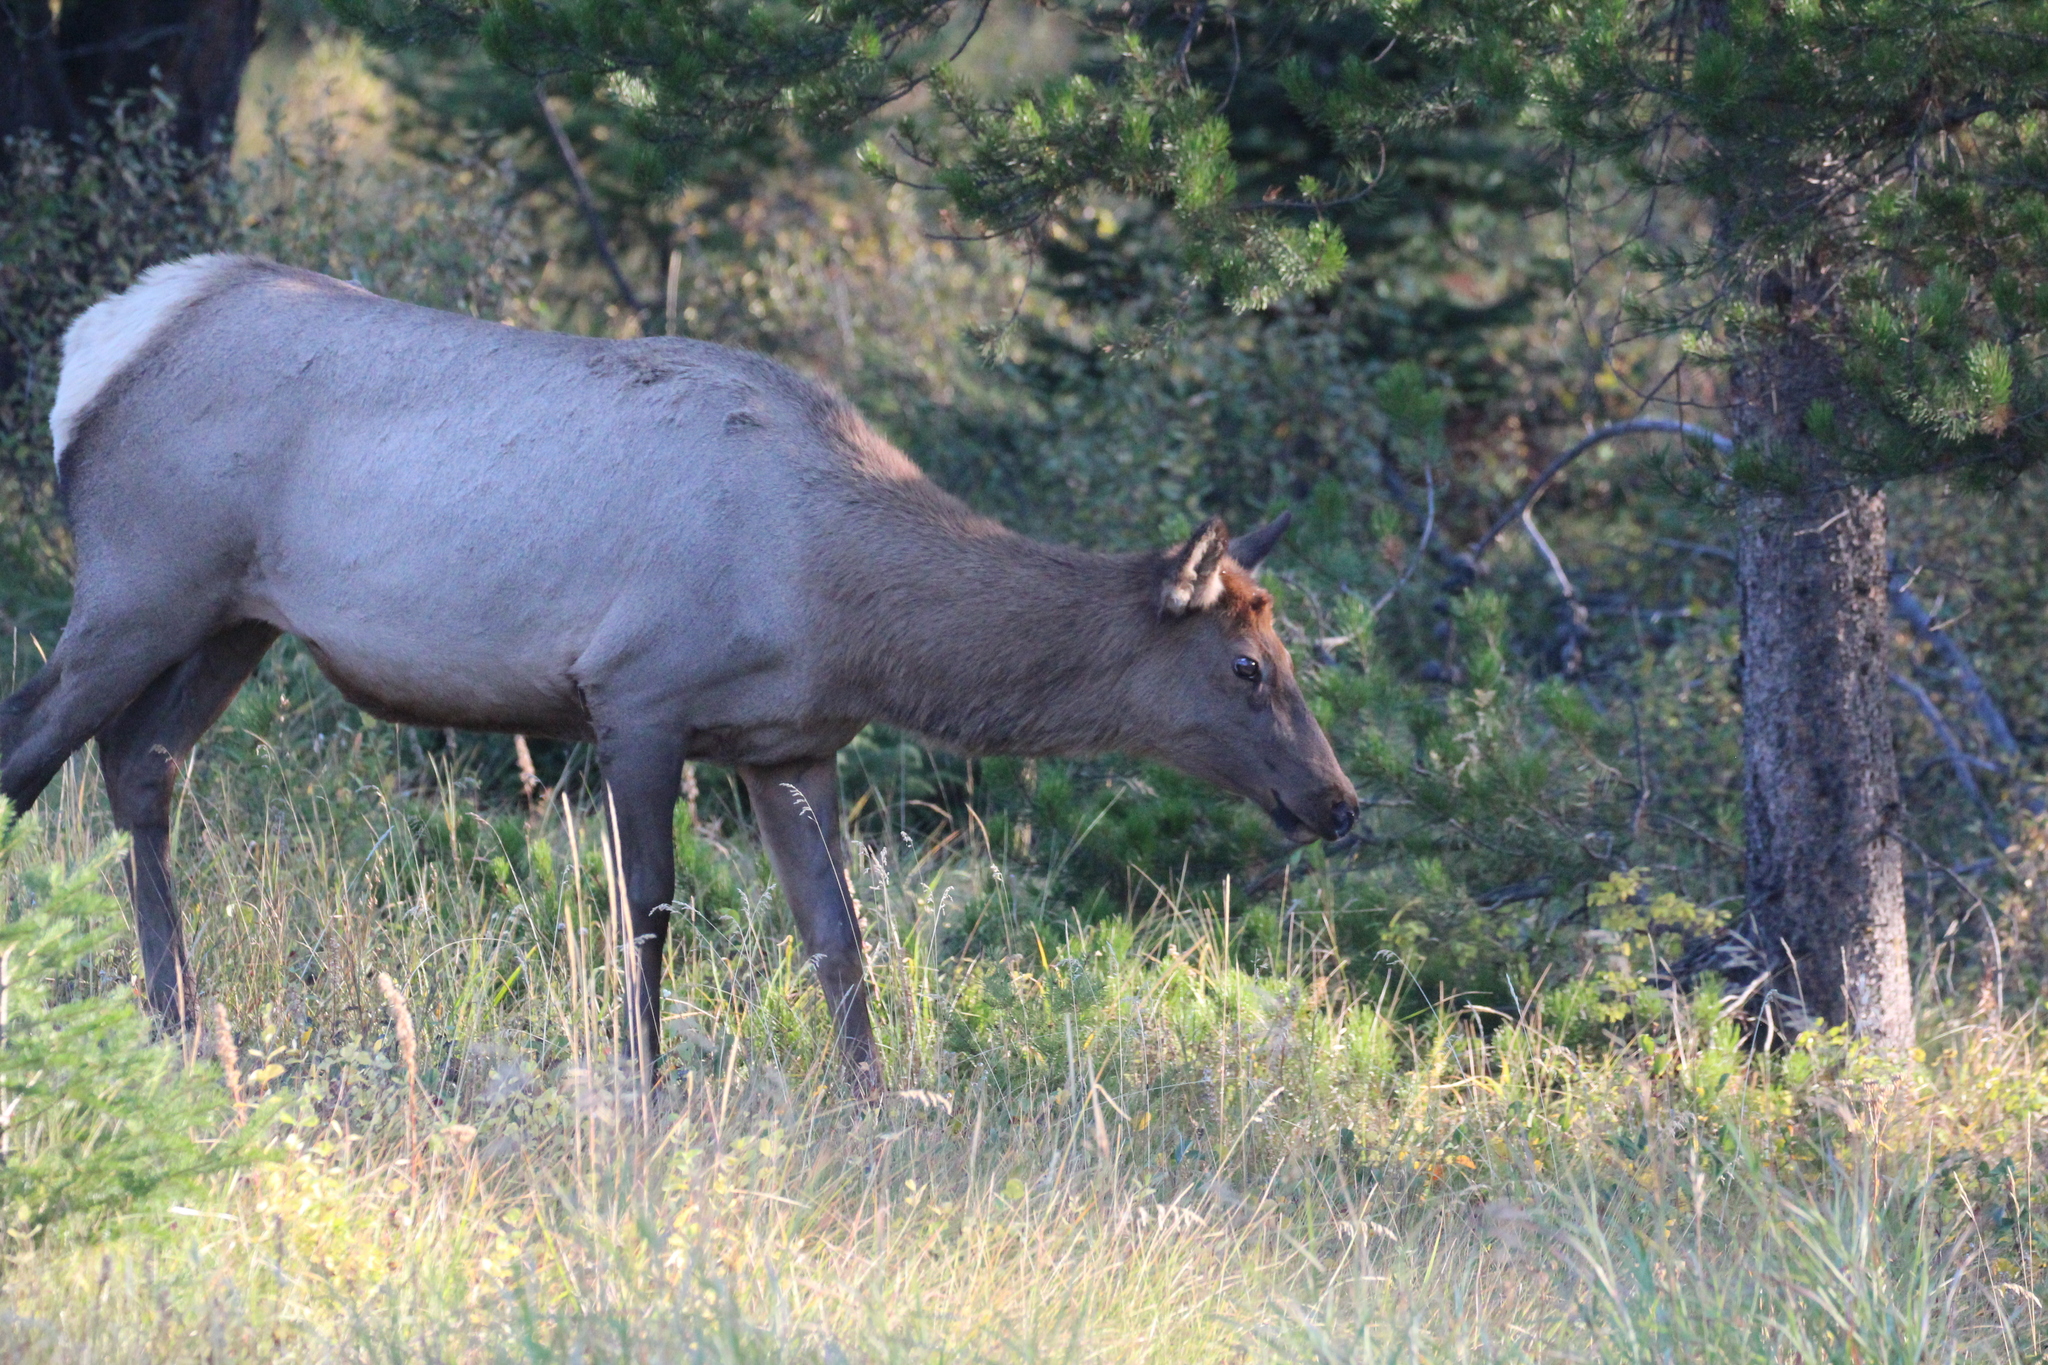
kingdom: Animalia
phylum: Chordata
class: Mammalia
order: Artiodactyla
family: Cervidae
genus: Cervus
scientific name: Cervus elaphus
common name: Red deer
